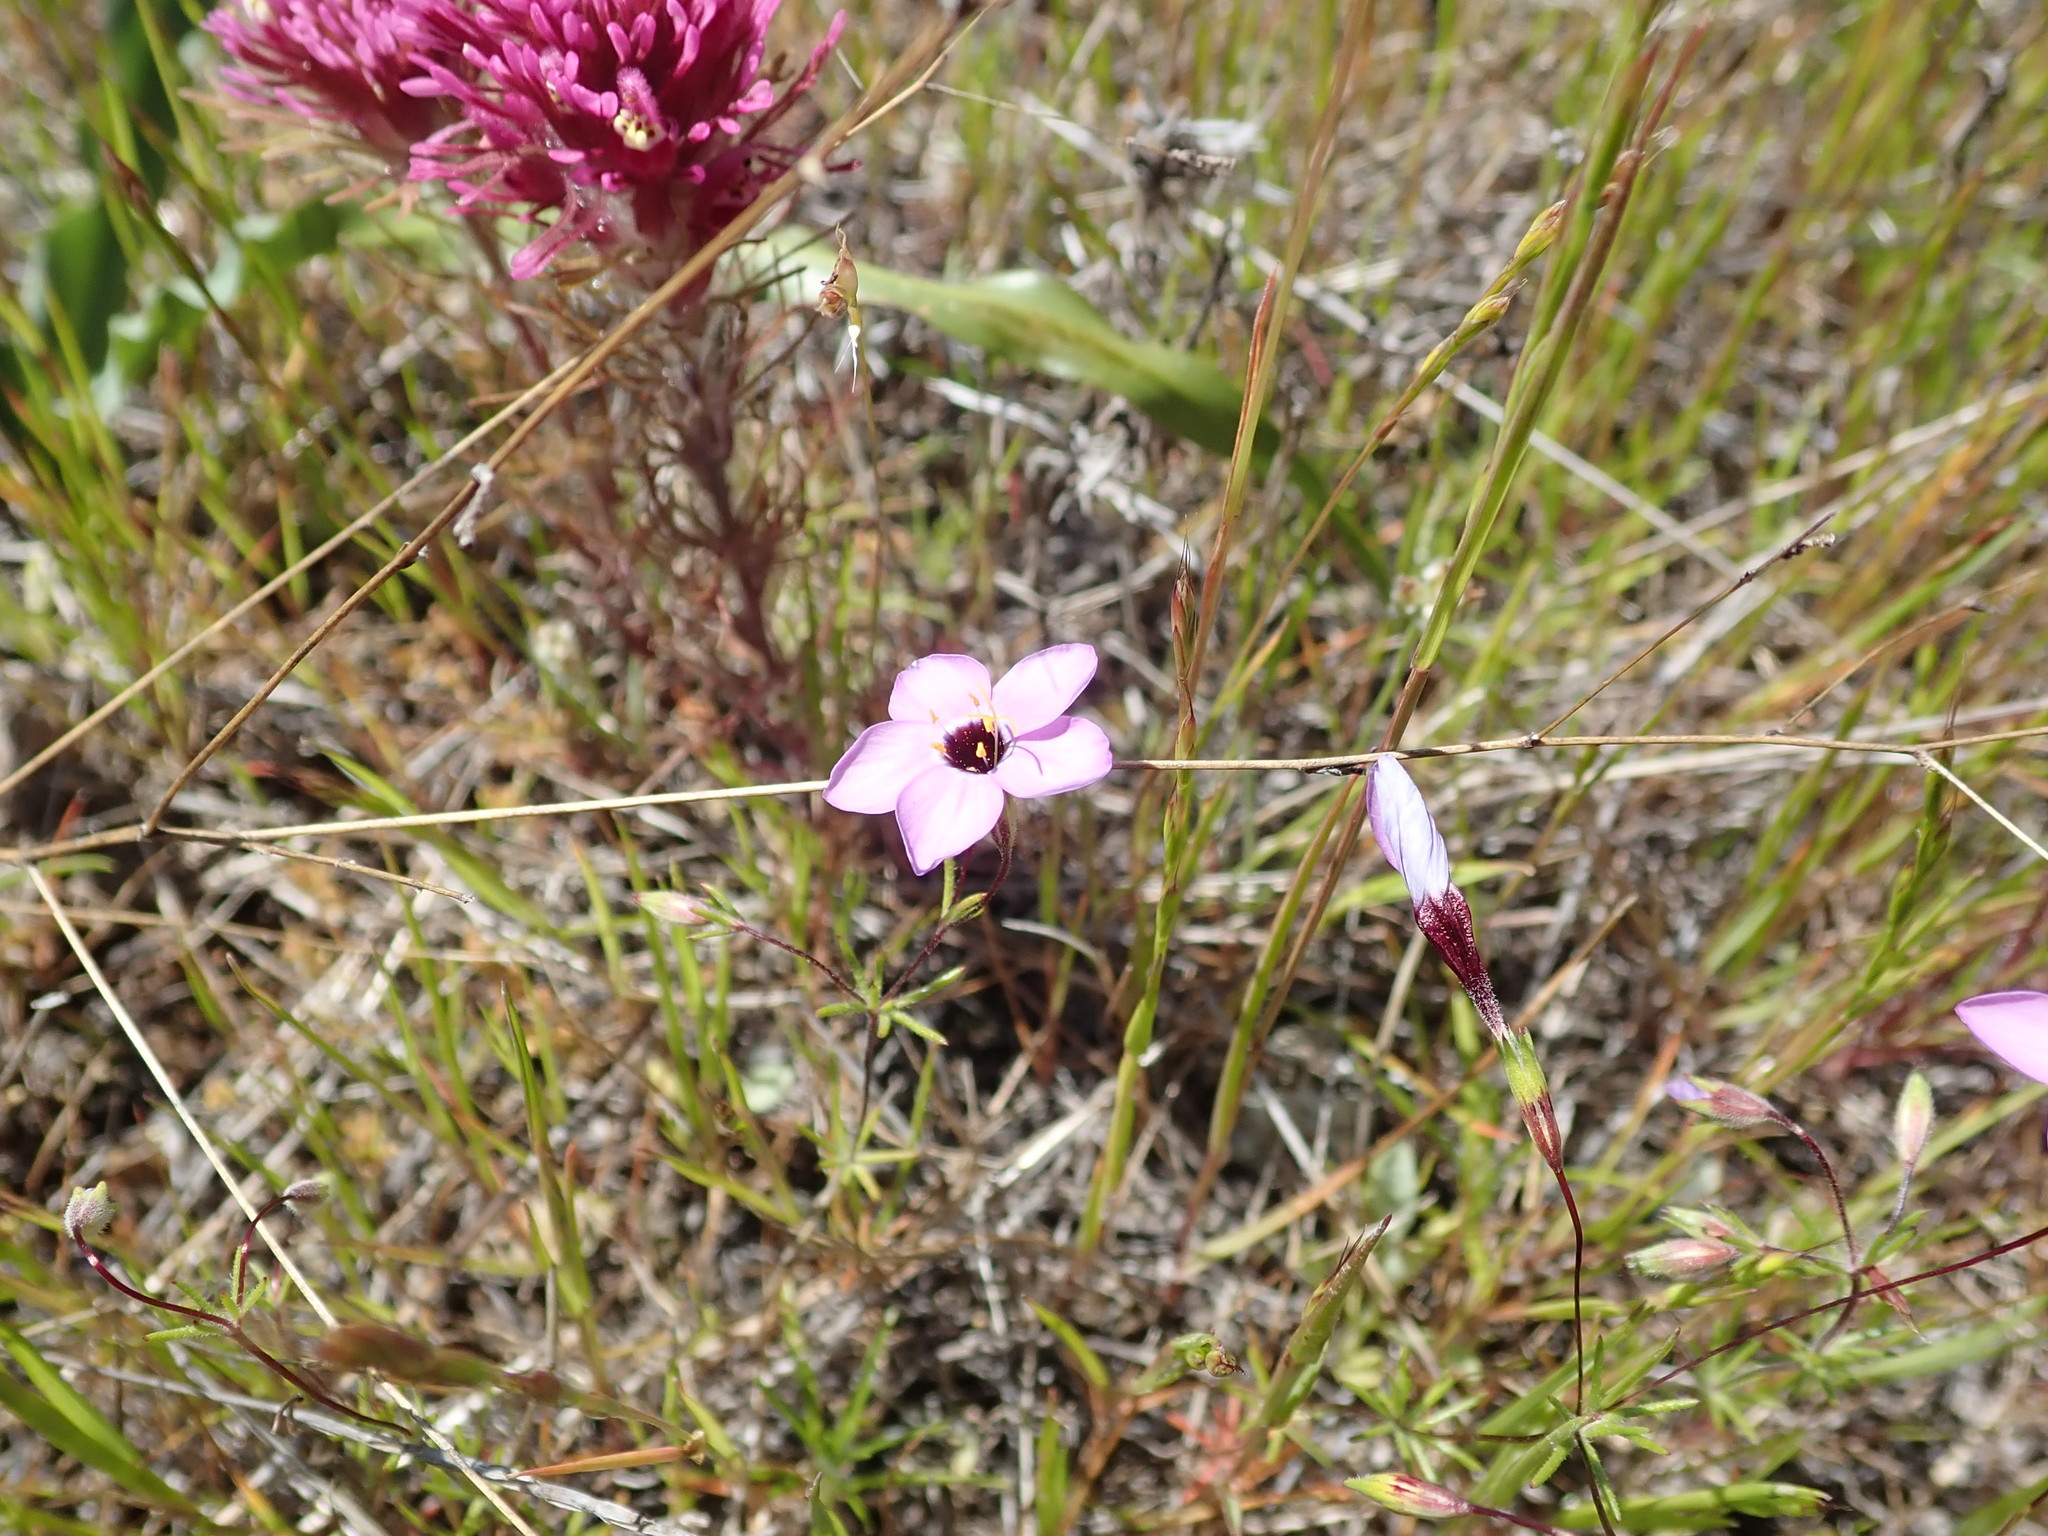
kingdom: Plantae
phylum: Tracheophyta
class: Magnoliopsida
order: Ericales
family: Polemoniaceae
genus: Leptosiphon
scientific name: Leptosiphon ambiguus
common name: Serpentine linanthus
